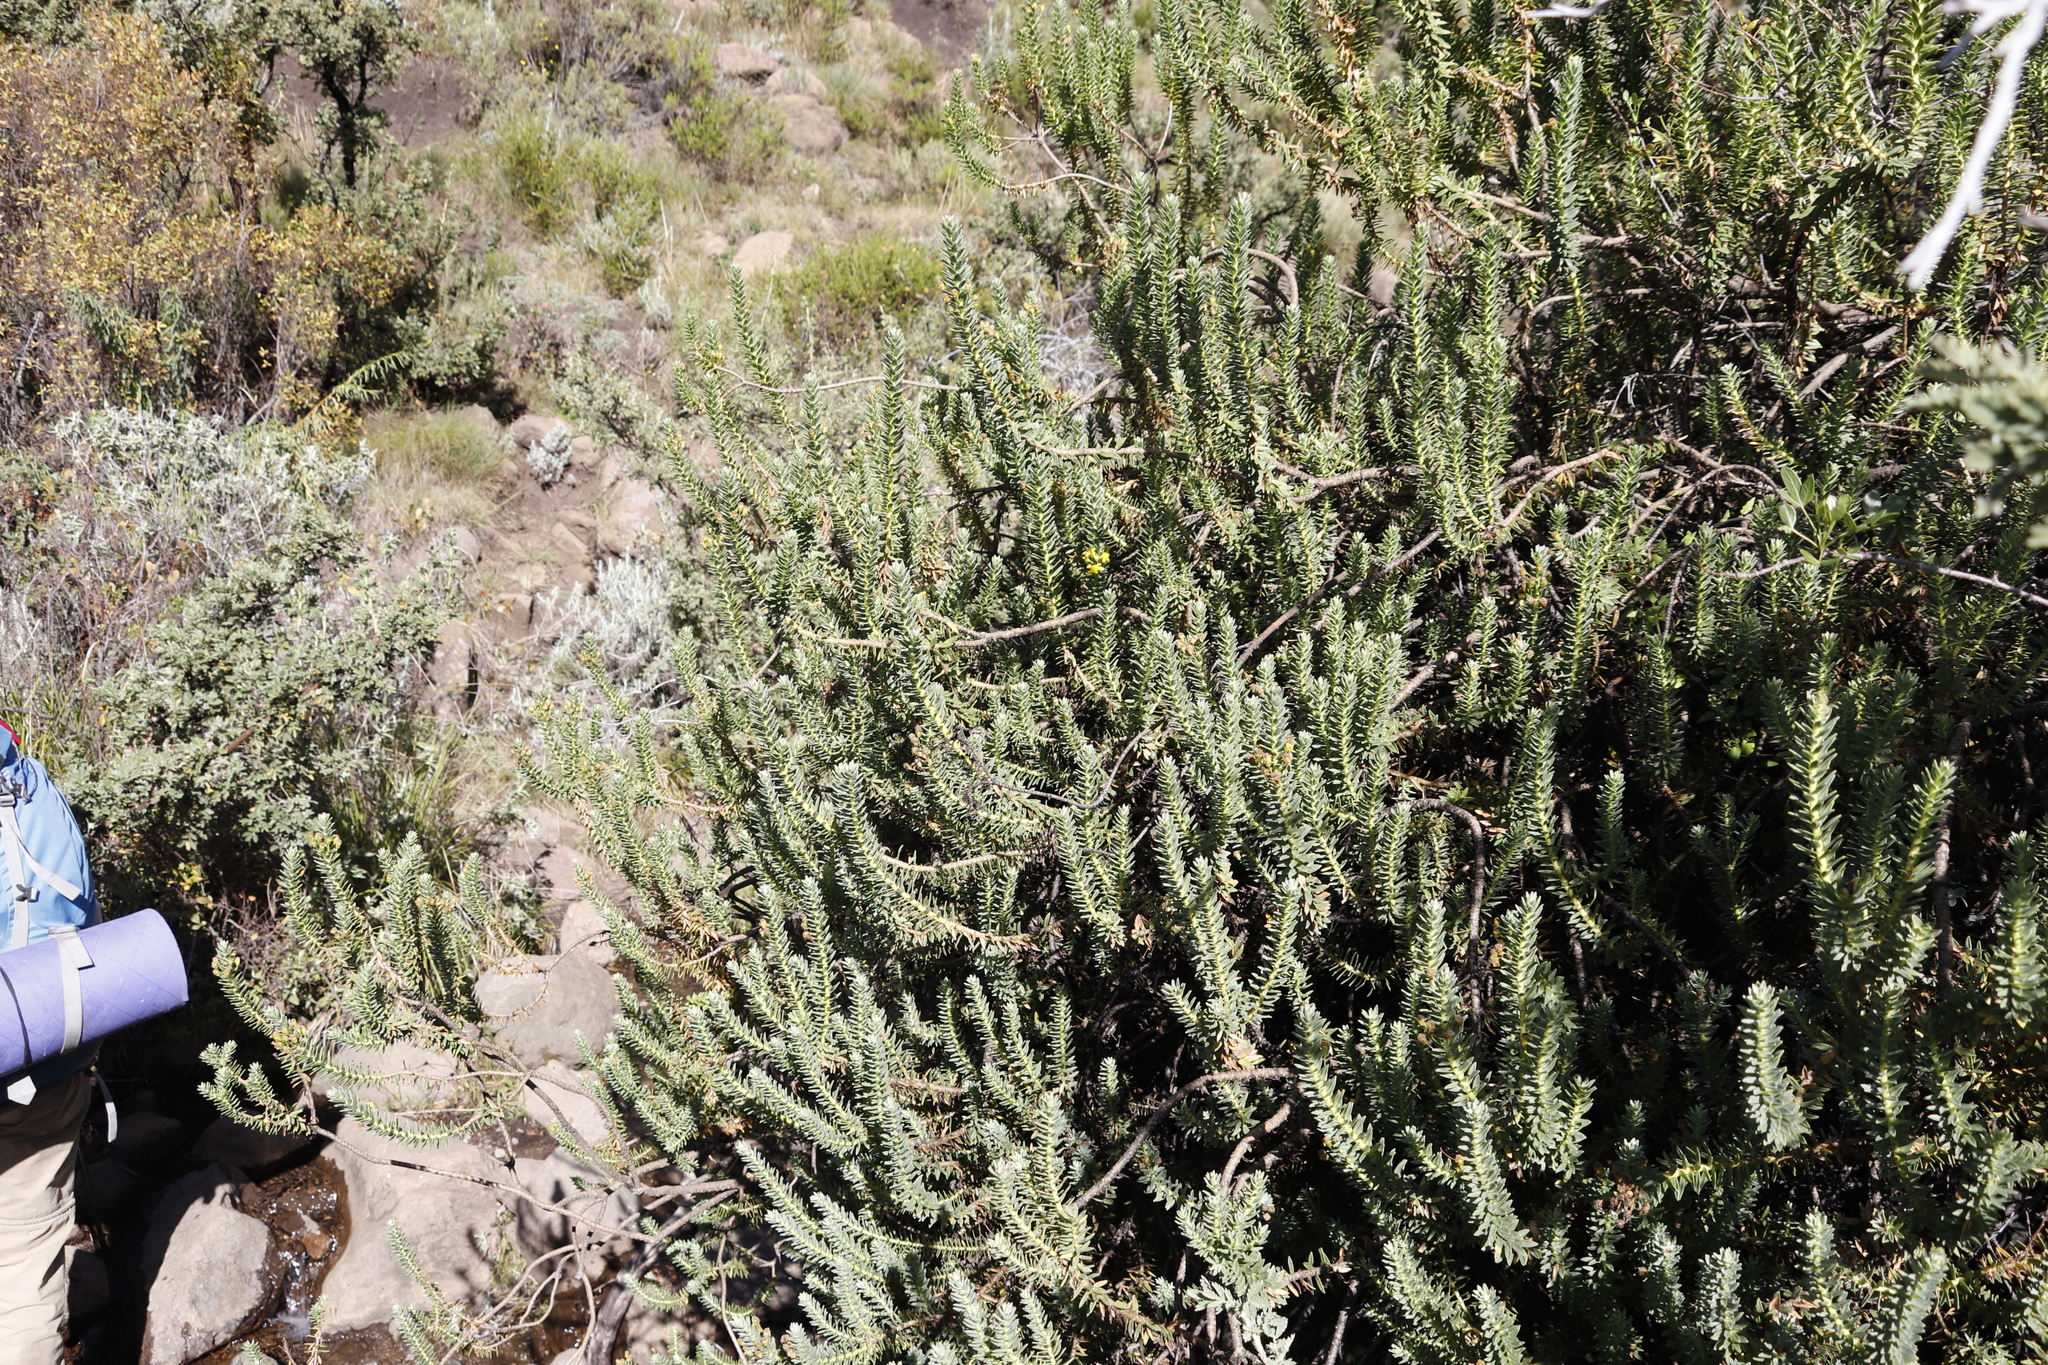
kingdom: Plantae
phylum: Tracheophyta
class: Magnoliopsida
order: Asterales
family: Asteraceae
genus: Euryops
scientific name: Euryops tysonii
